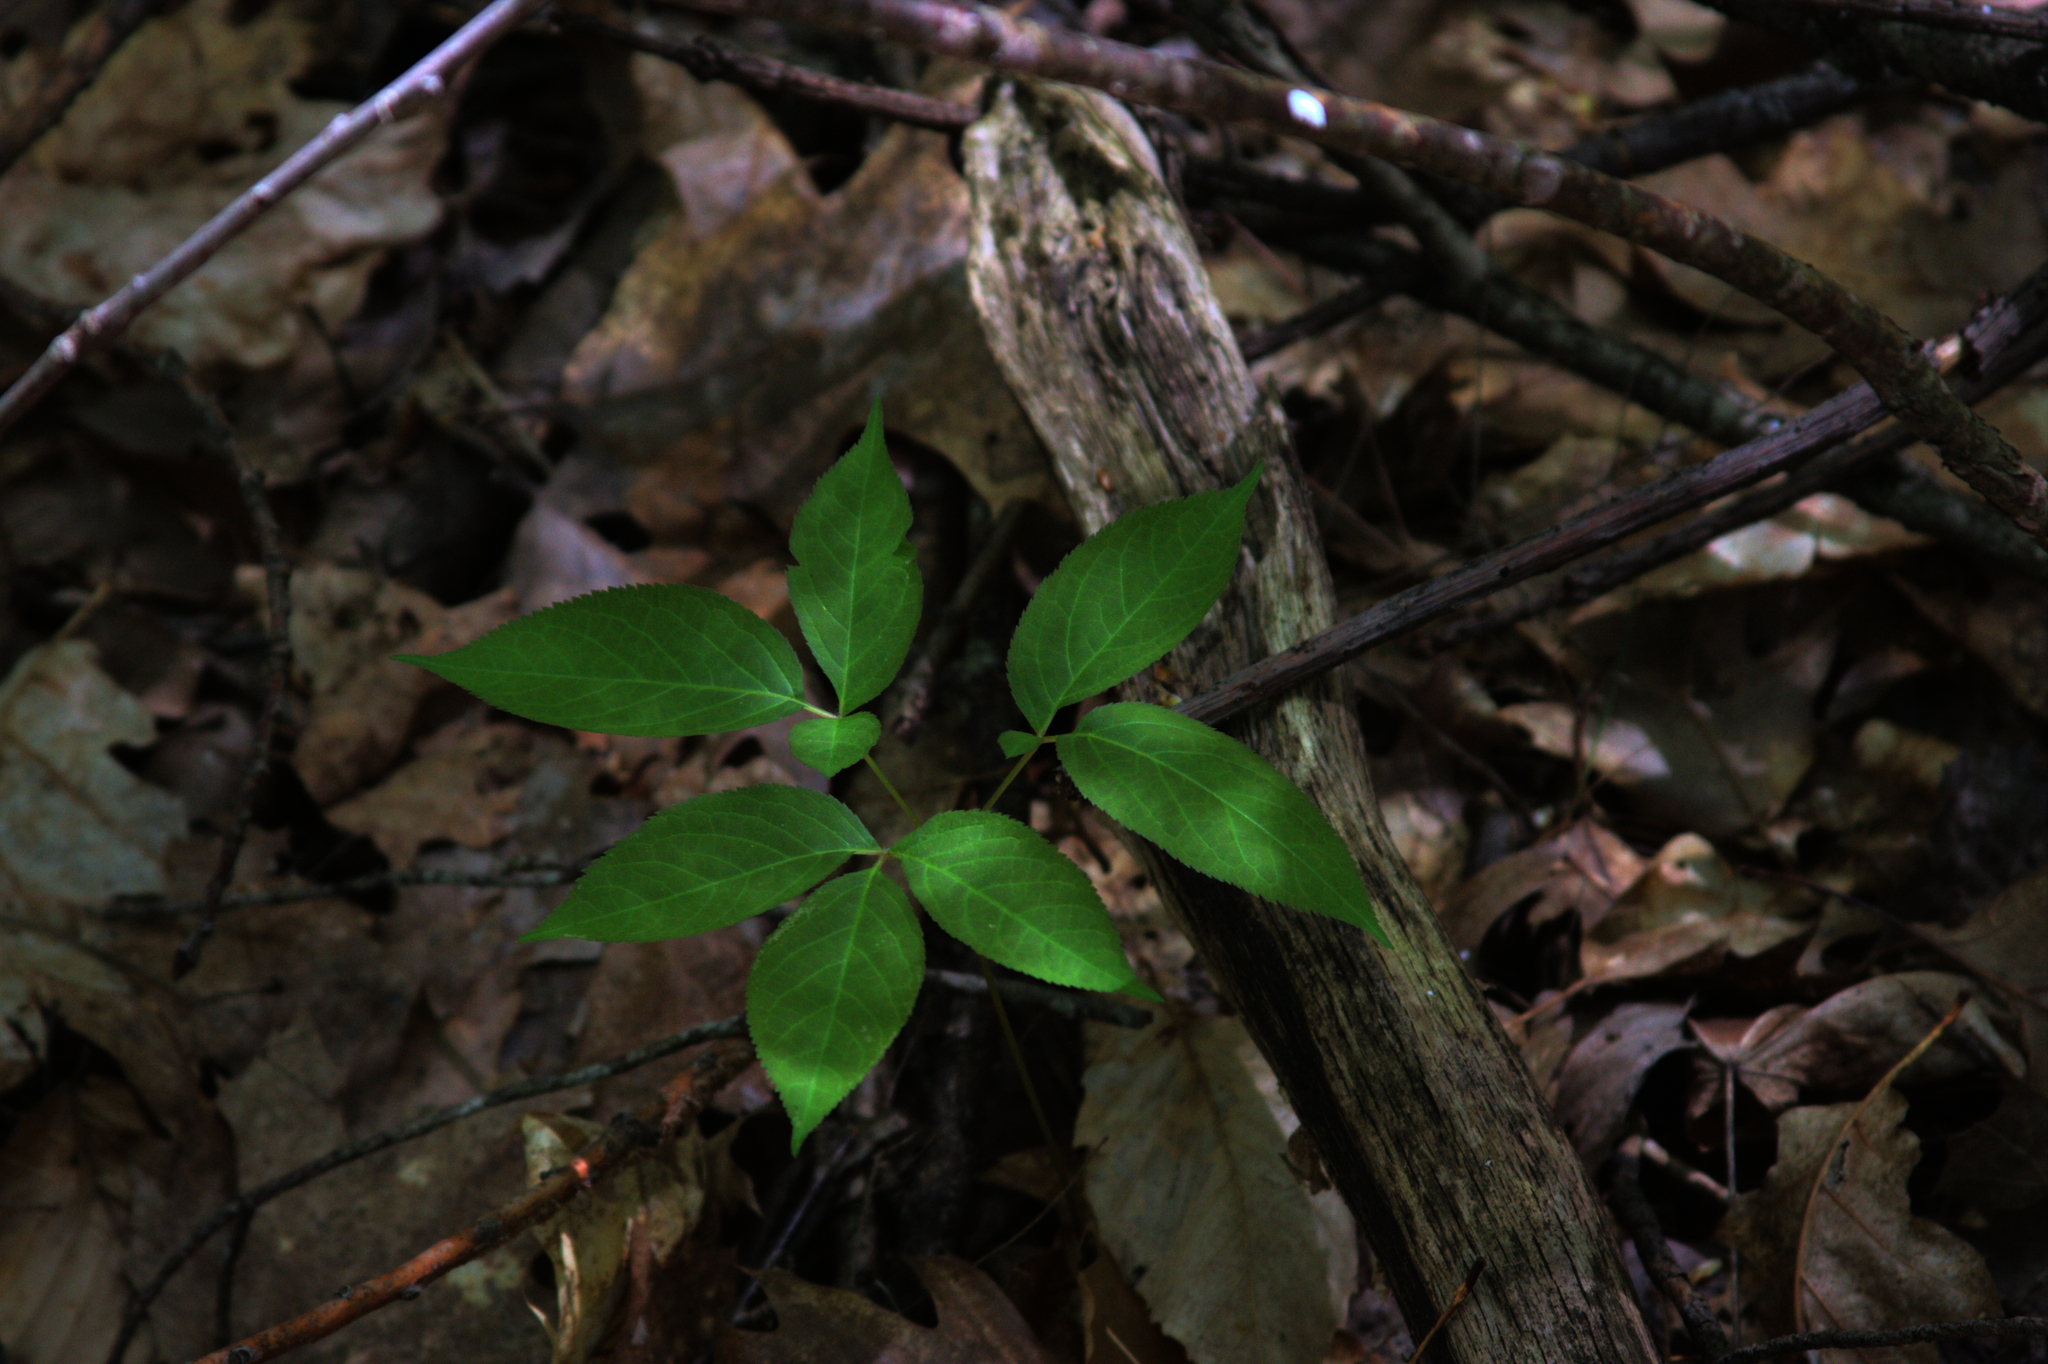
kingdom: Plantae
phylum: Tracheophyta
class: Magnoliopsida
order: Apiales
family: Araliaceae
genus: Aralia
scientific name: Aralia nudicaulis
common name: Wild sarsaparilla
